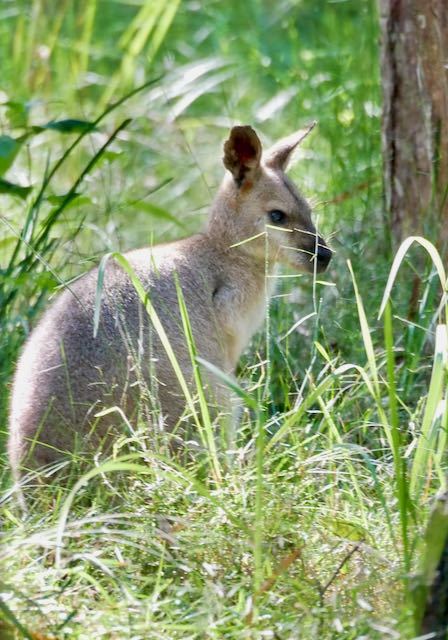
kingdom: Animalia
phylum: Chordata
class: Mammalia
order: Diprotodontia
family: Macropodidae
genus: Notamacropus
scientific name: Notamacropus rufogriseus
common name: Red-necked wallaby
